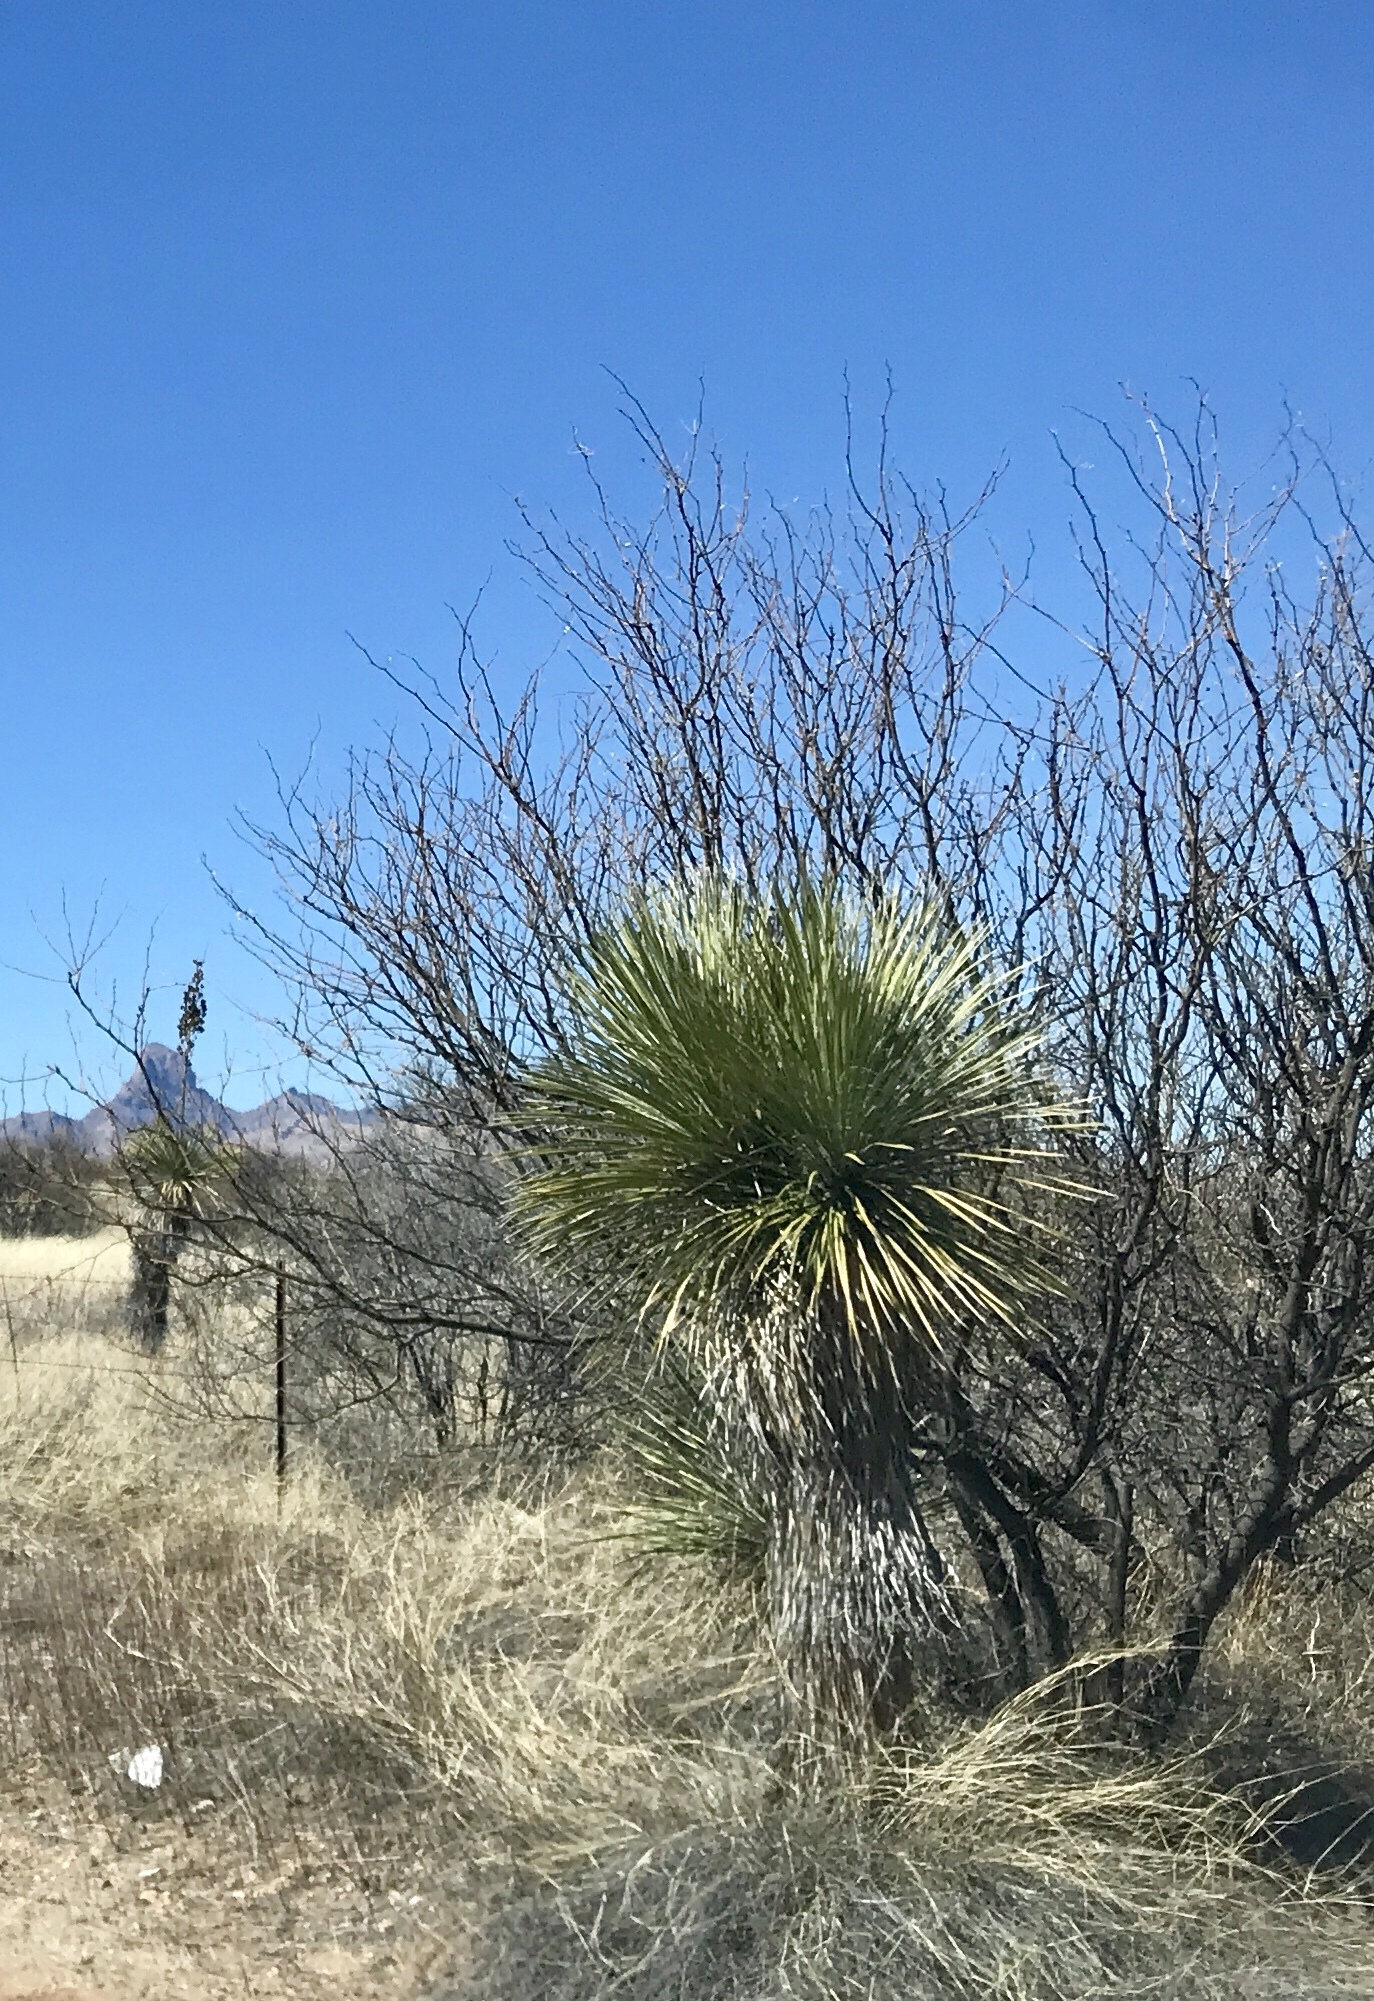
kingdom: Plantae
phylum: Tracheophyta
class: Liliopsida
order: Asparagales
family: Asparagaceae
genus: Yucca
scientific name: Yucca elata
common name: Palmella
